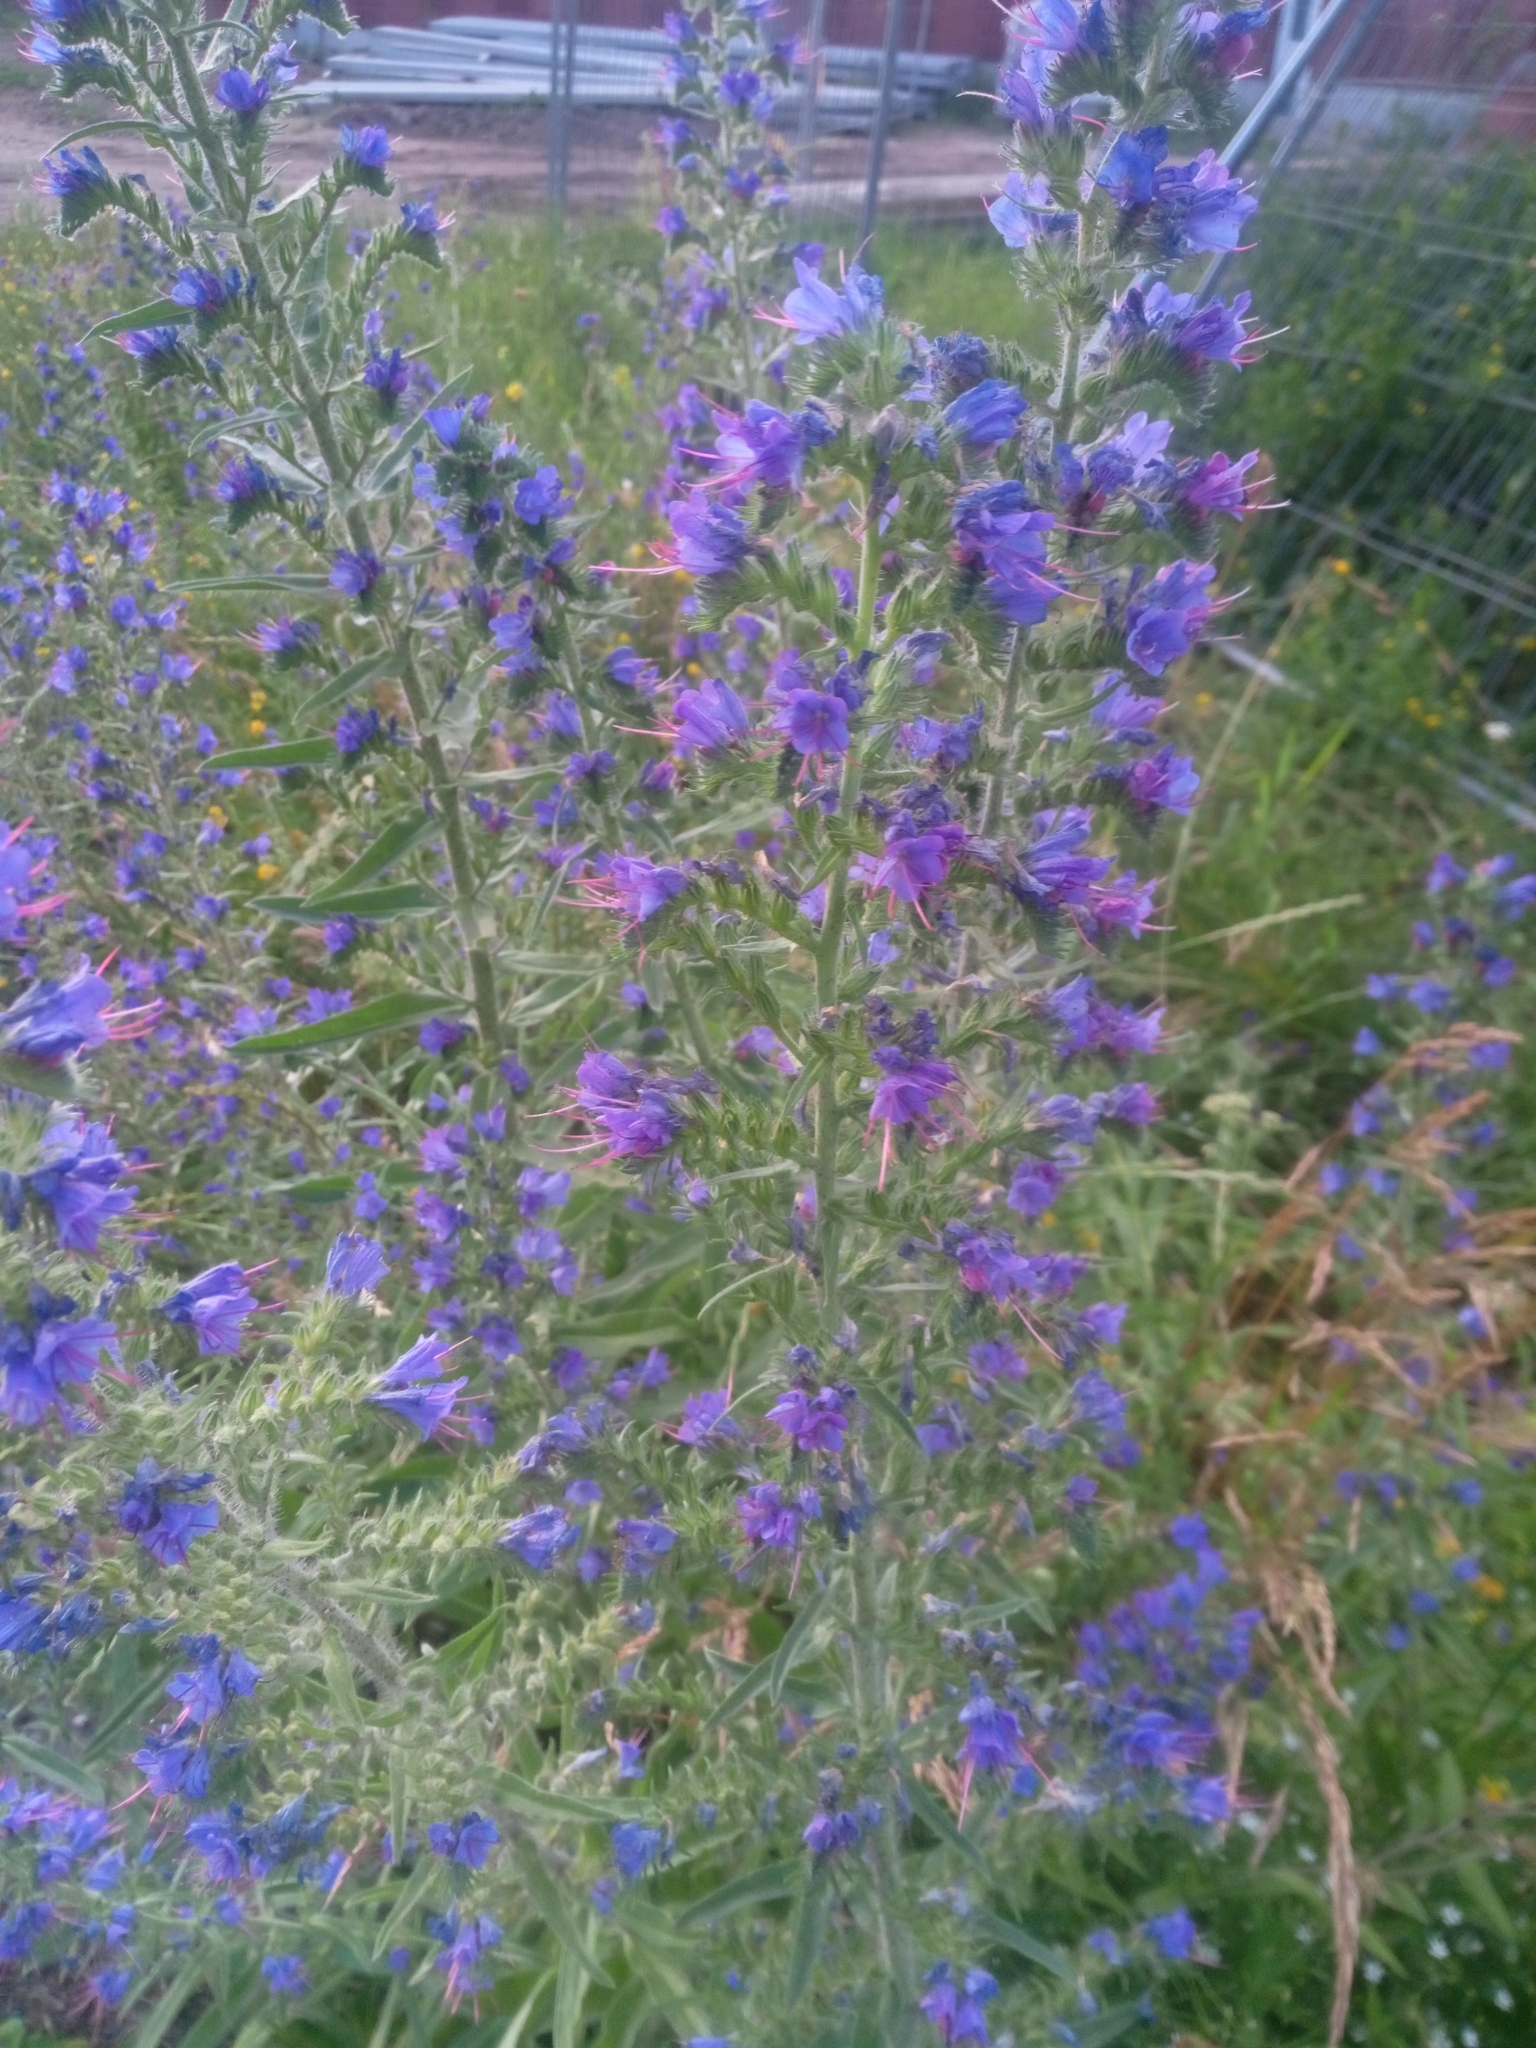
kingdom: Plantae
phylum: Tracheophyta
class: Magnoliopsida
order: Boraginales
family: Boraginaceae
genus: Echium
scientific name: Echium vulgare
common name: Common viper's bugloss
